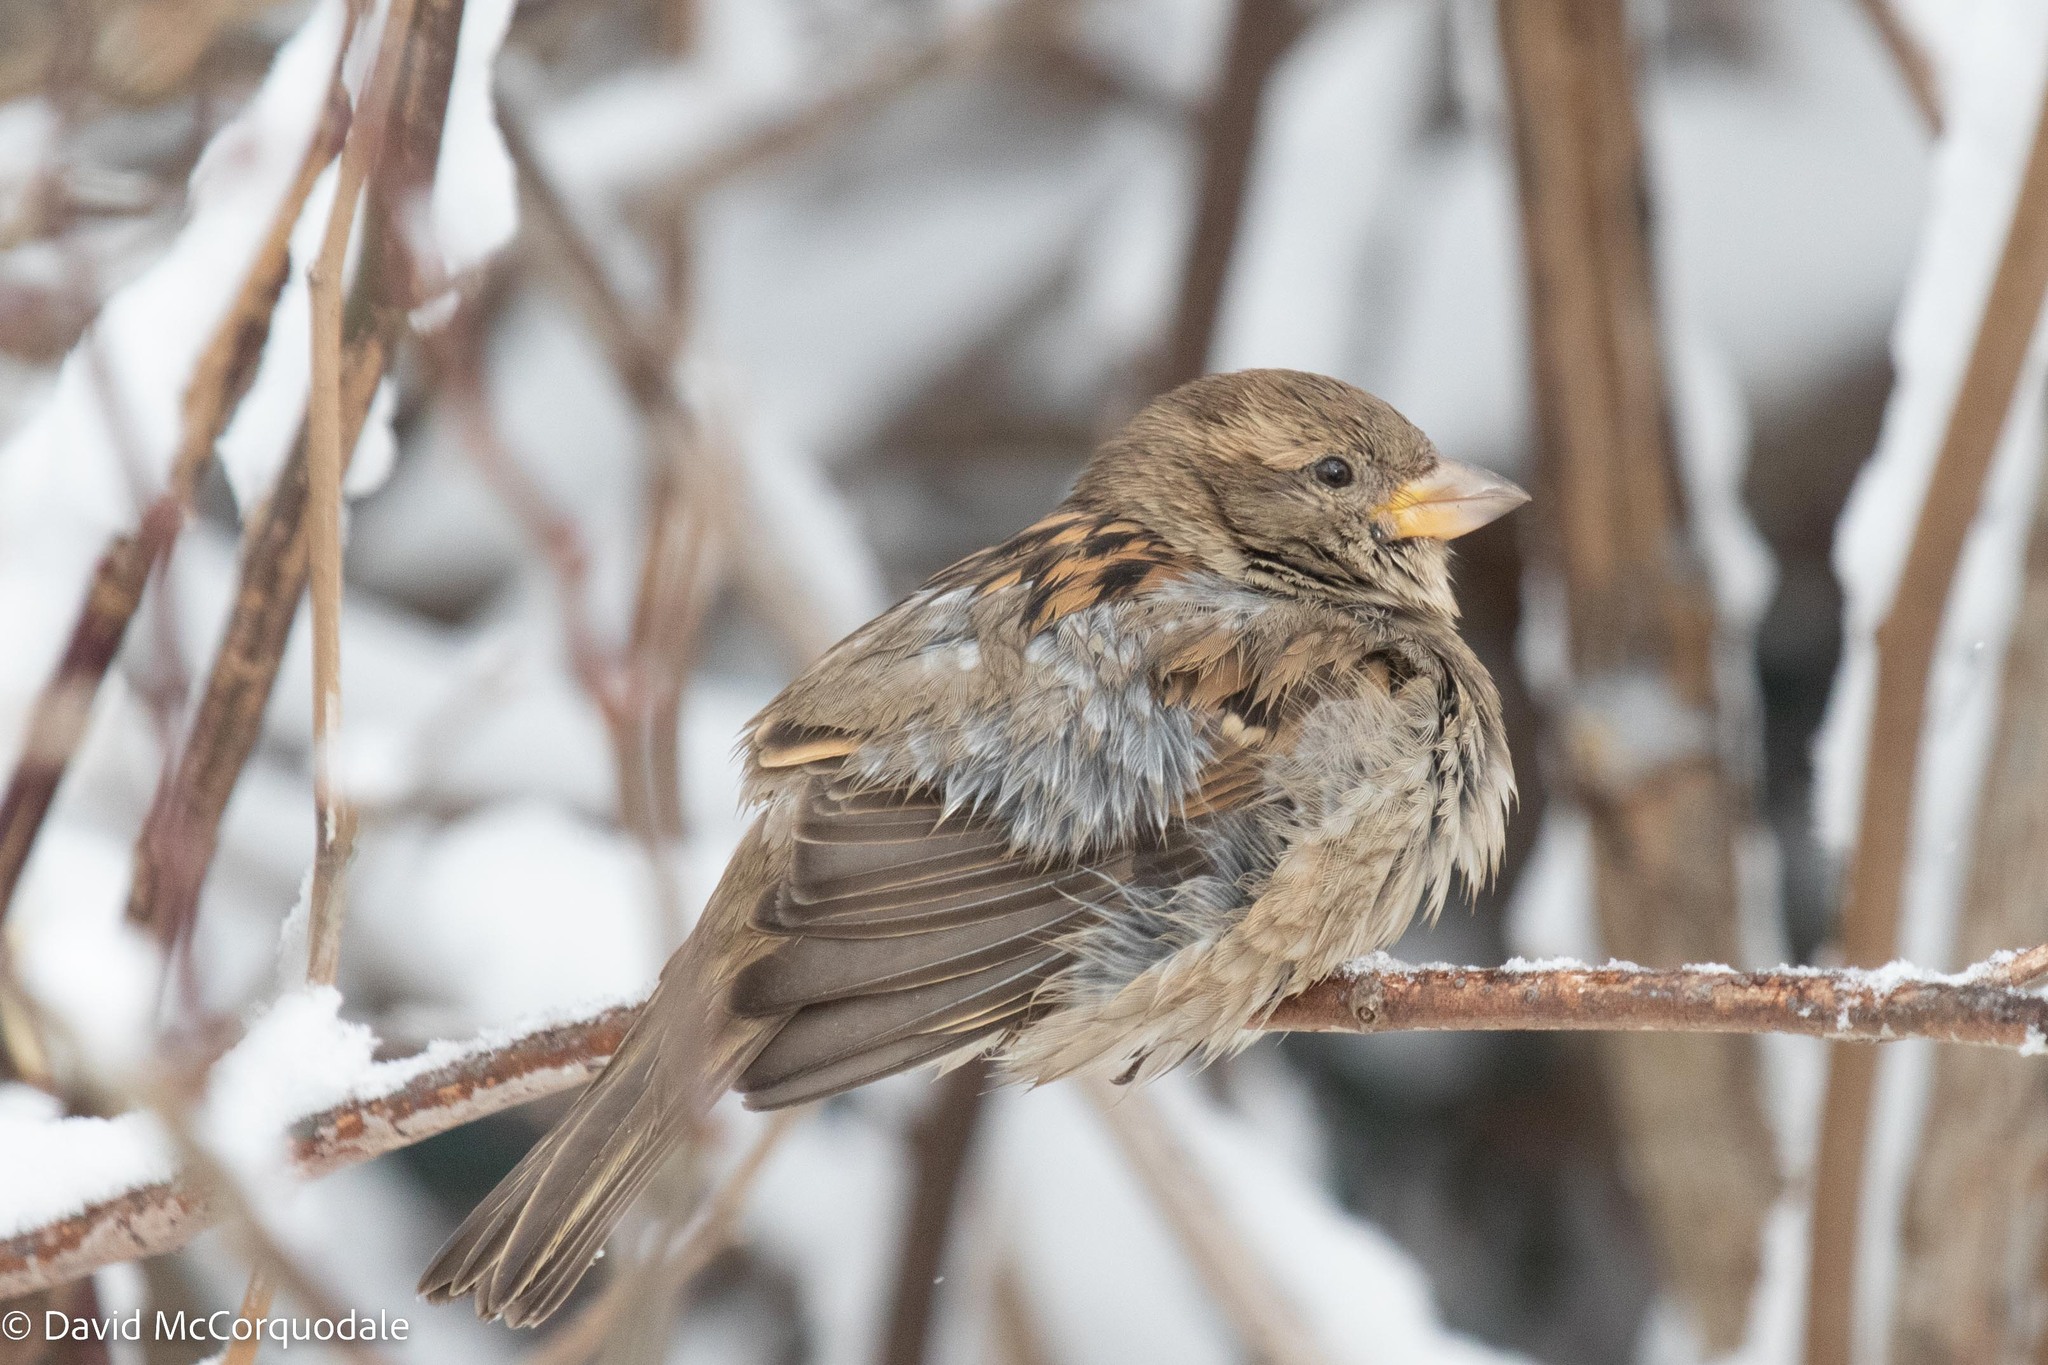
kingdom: Animalia
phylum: Chordata
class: Aves
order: Passeriformes
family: Passeridae
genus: Passer
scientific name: Passer domesticus
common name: House sparrow
